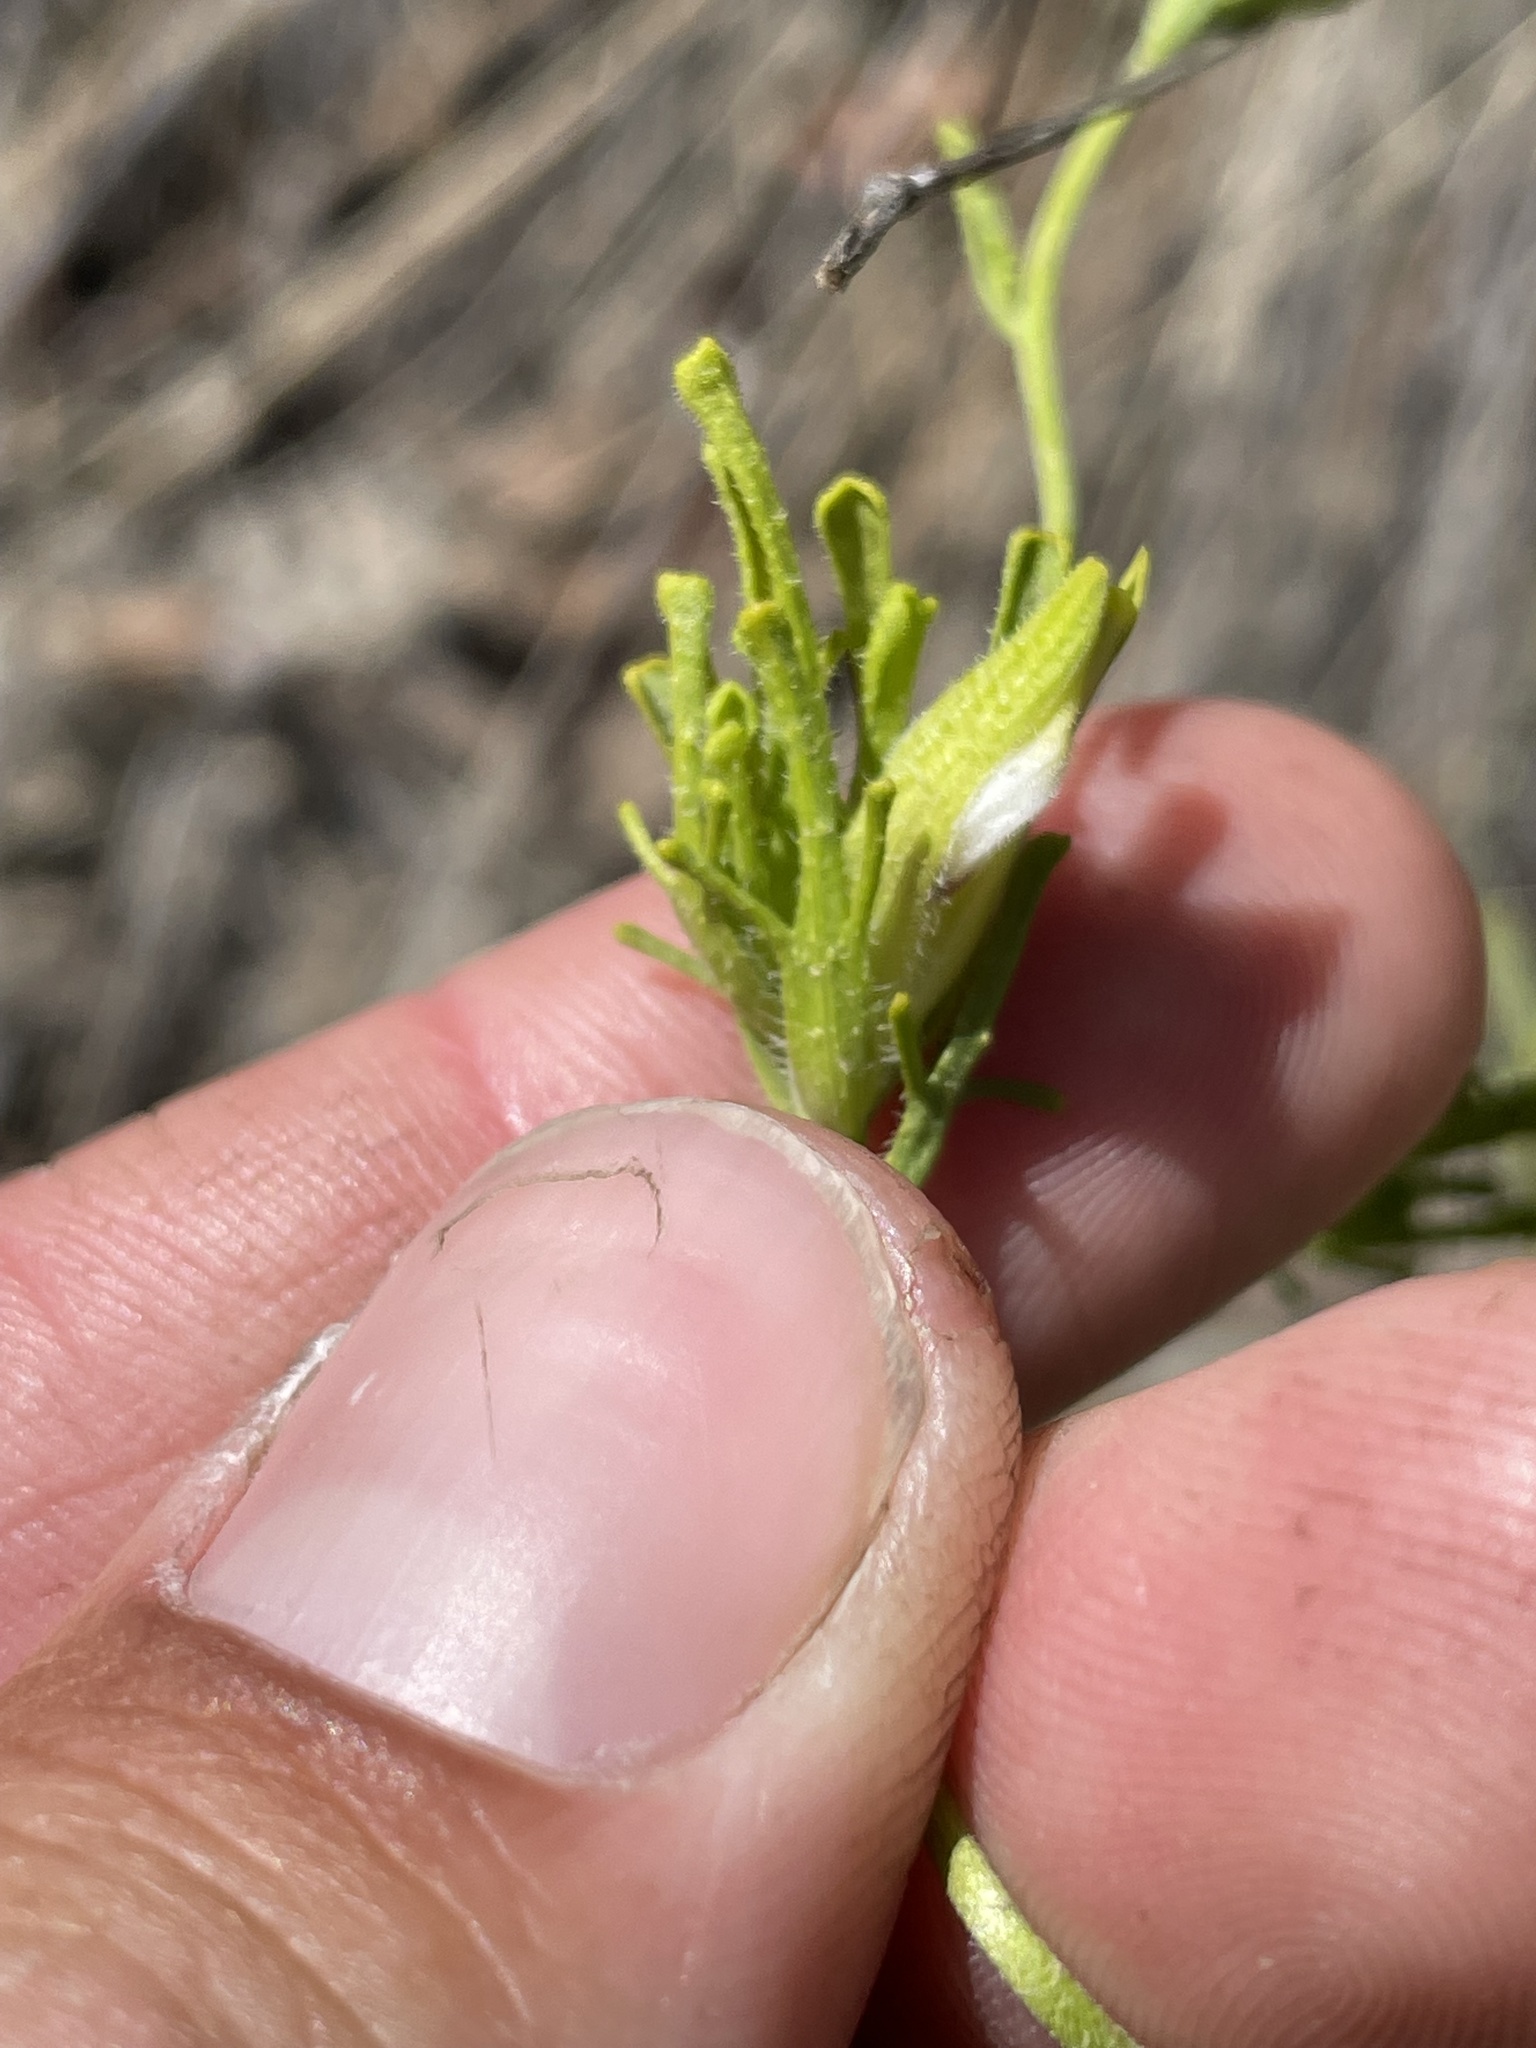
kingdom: Plantae
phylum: Tracheophyta
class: Magnoliopsida
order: Lamiales
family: Orobanchaceae
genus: Cordylanthus
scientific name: Cordylanthus rigidus
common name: Stiff-branch bird's-beak
